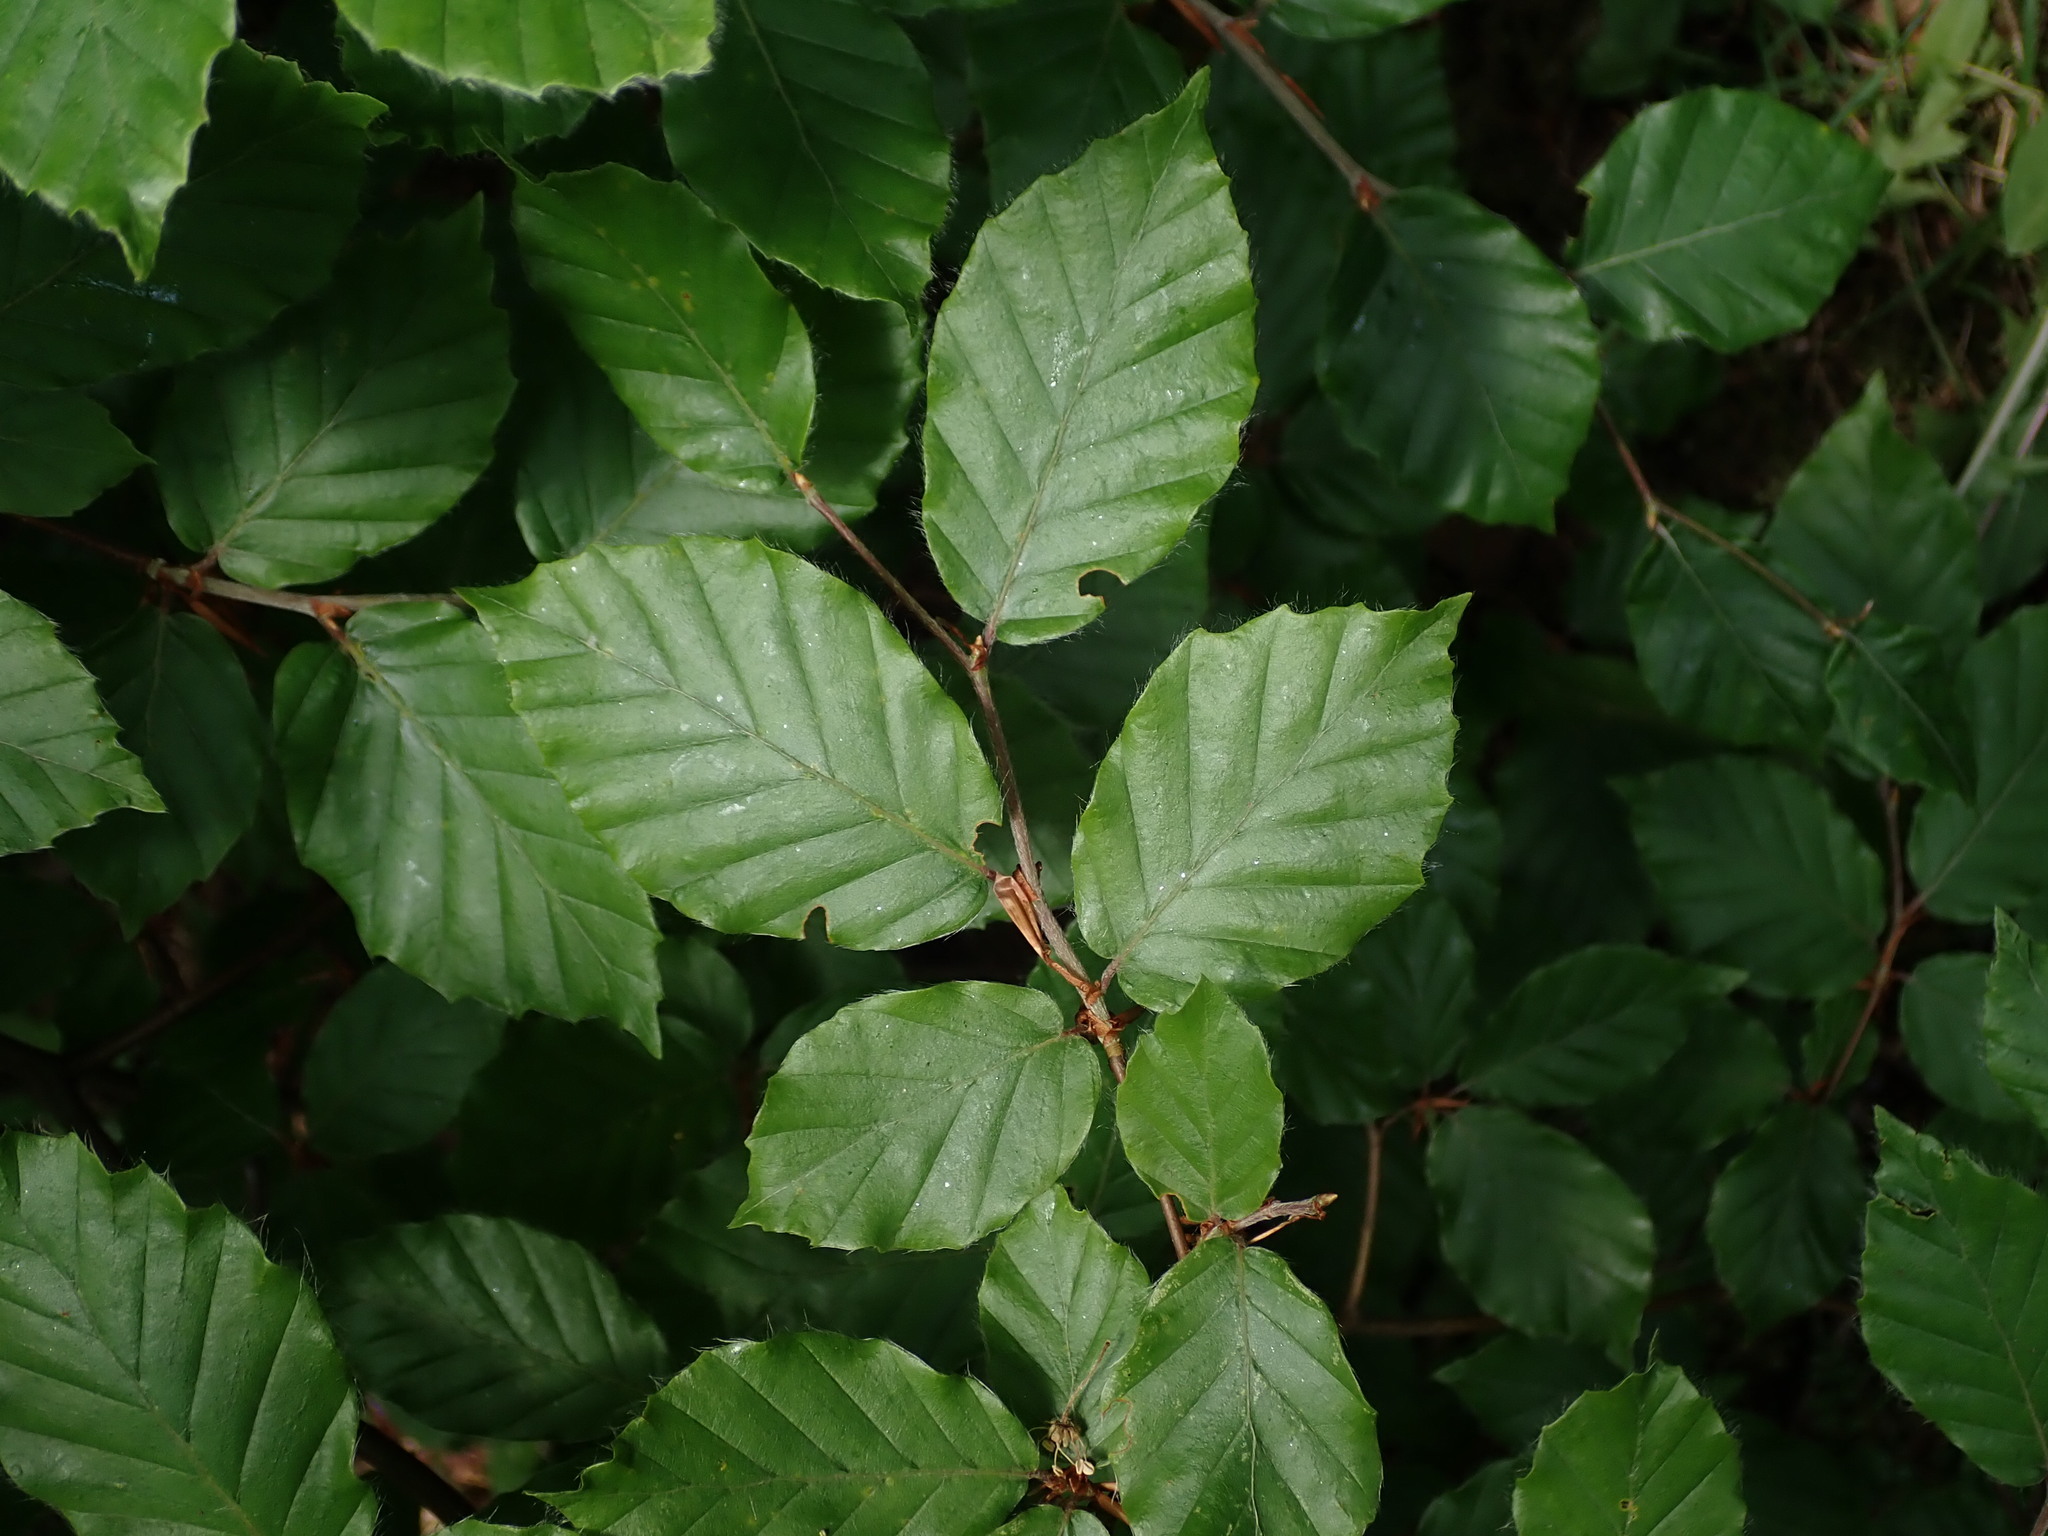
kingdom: Plantae
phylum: Tracheophyta
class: Magnoliopsida
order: Fagales
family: Fagaceae
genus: Fagus
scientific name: Fagus sylvatica
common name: Beech
